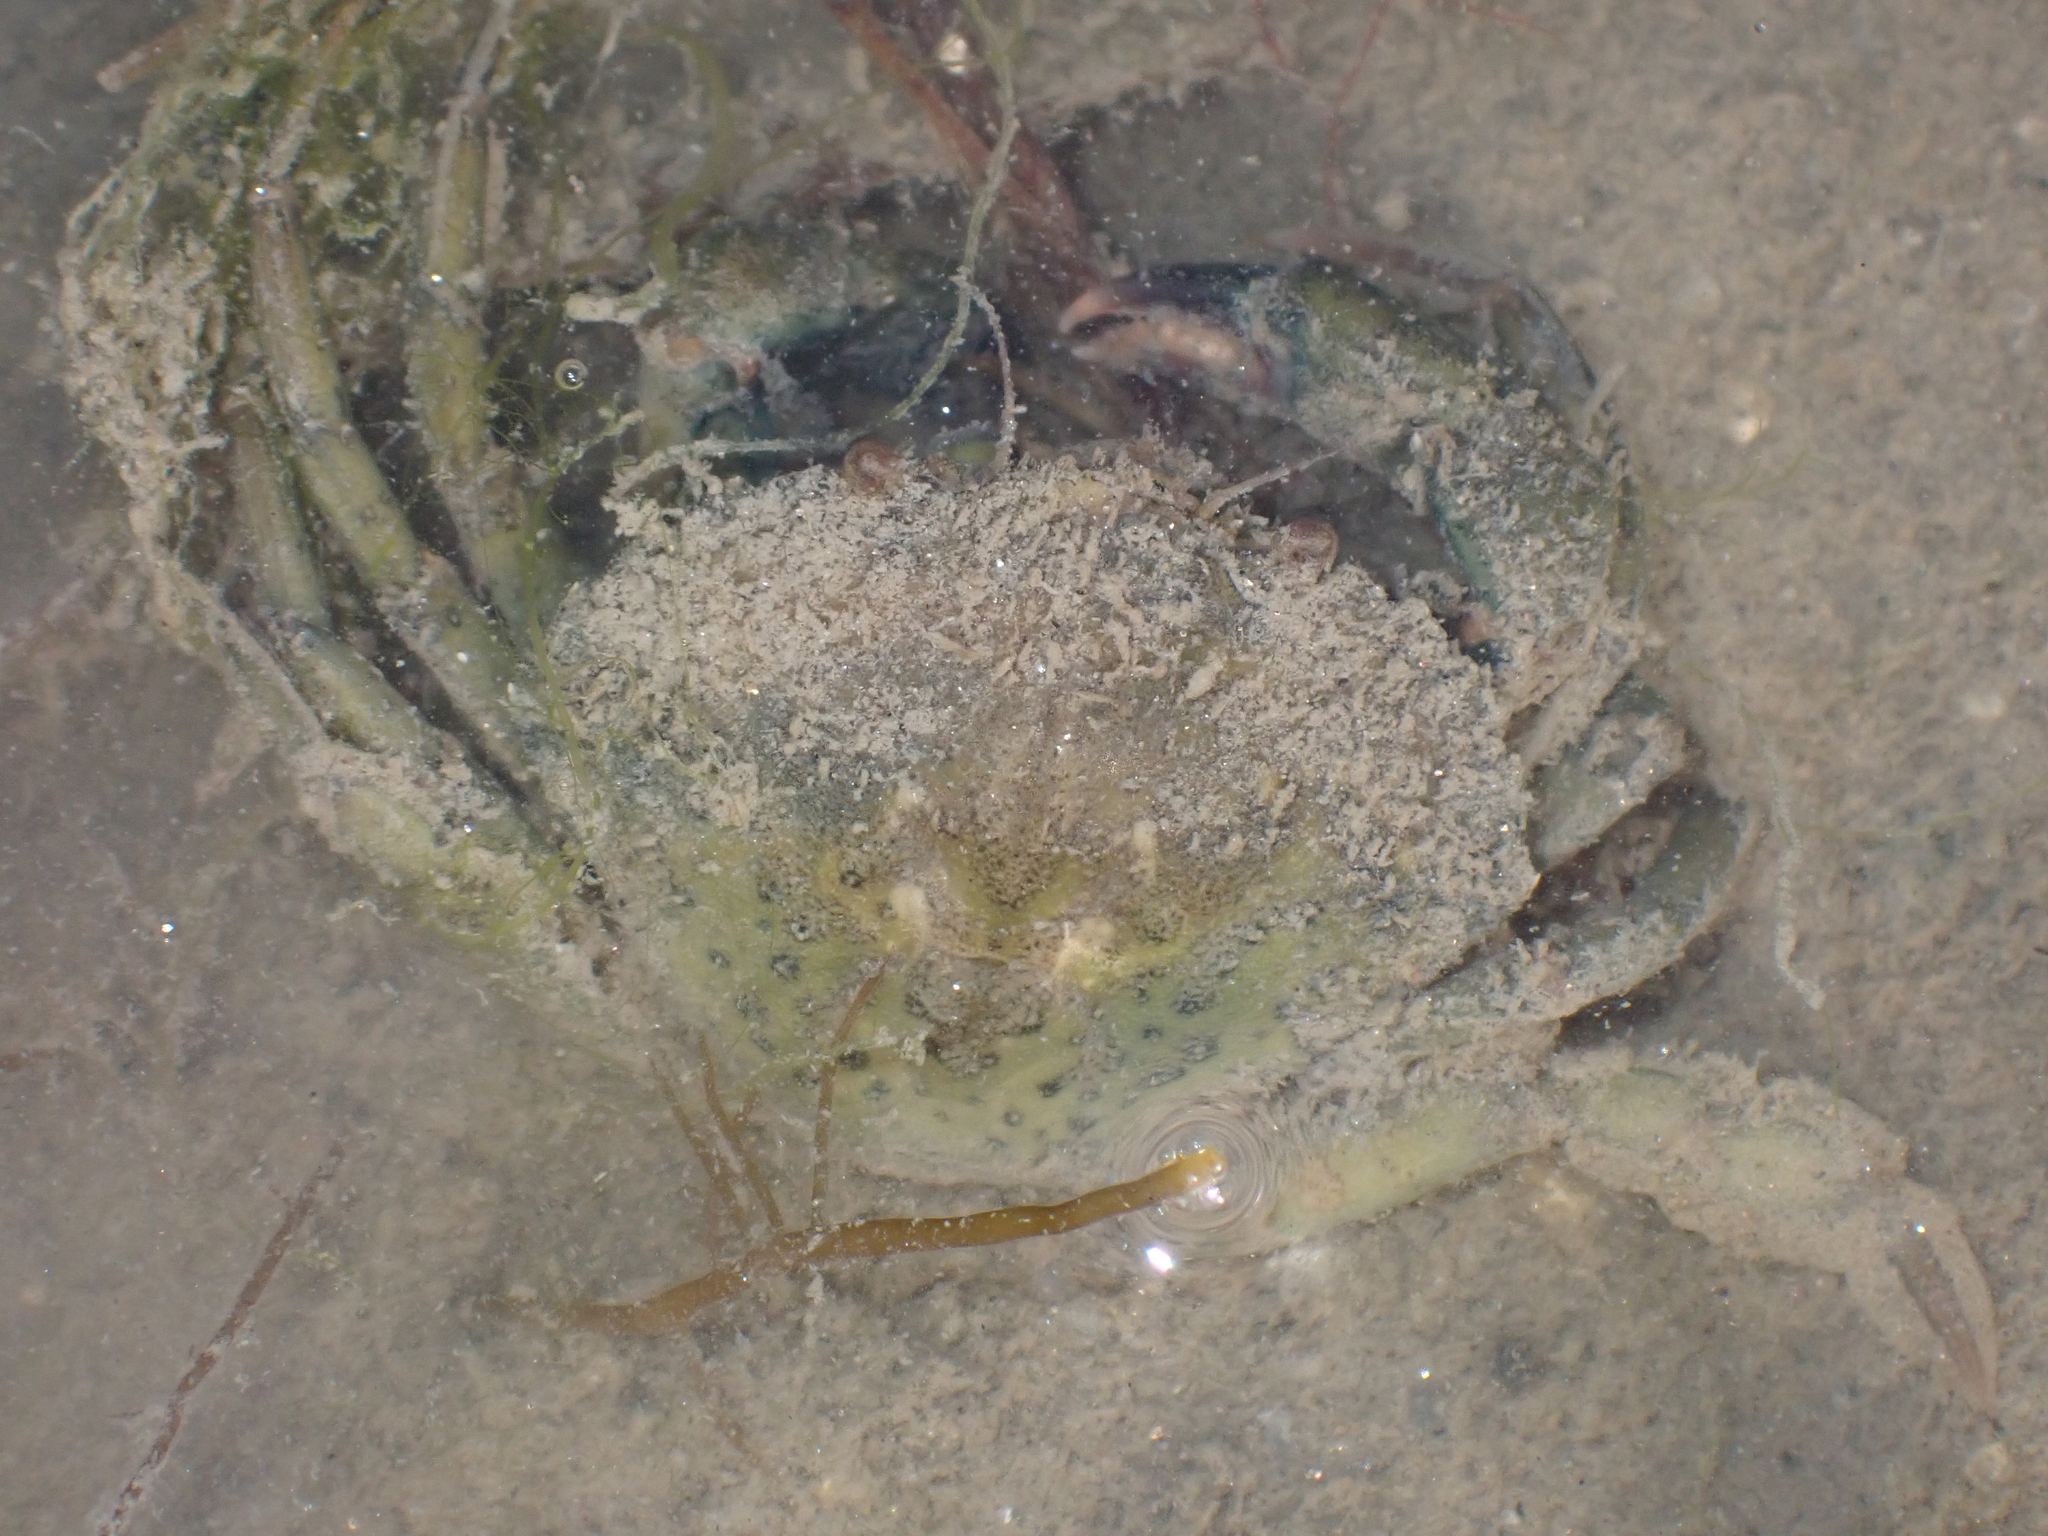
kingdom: Animalia
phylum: Arthropoda
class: Malacostraca
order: Decapoda
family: Carcinidae
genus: Carcinus
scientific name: Carcinus maenas
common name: European green crab
